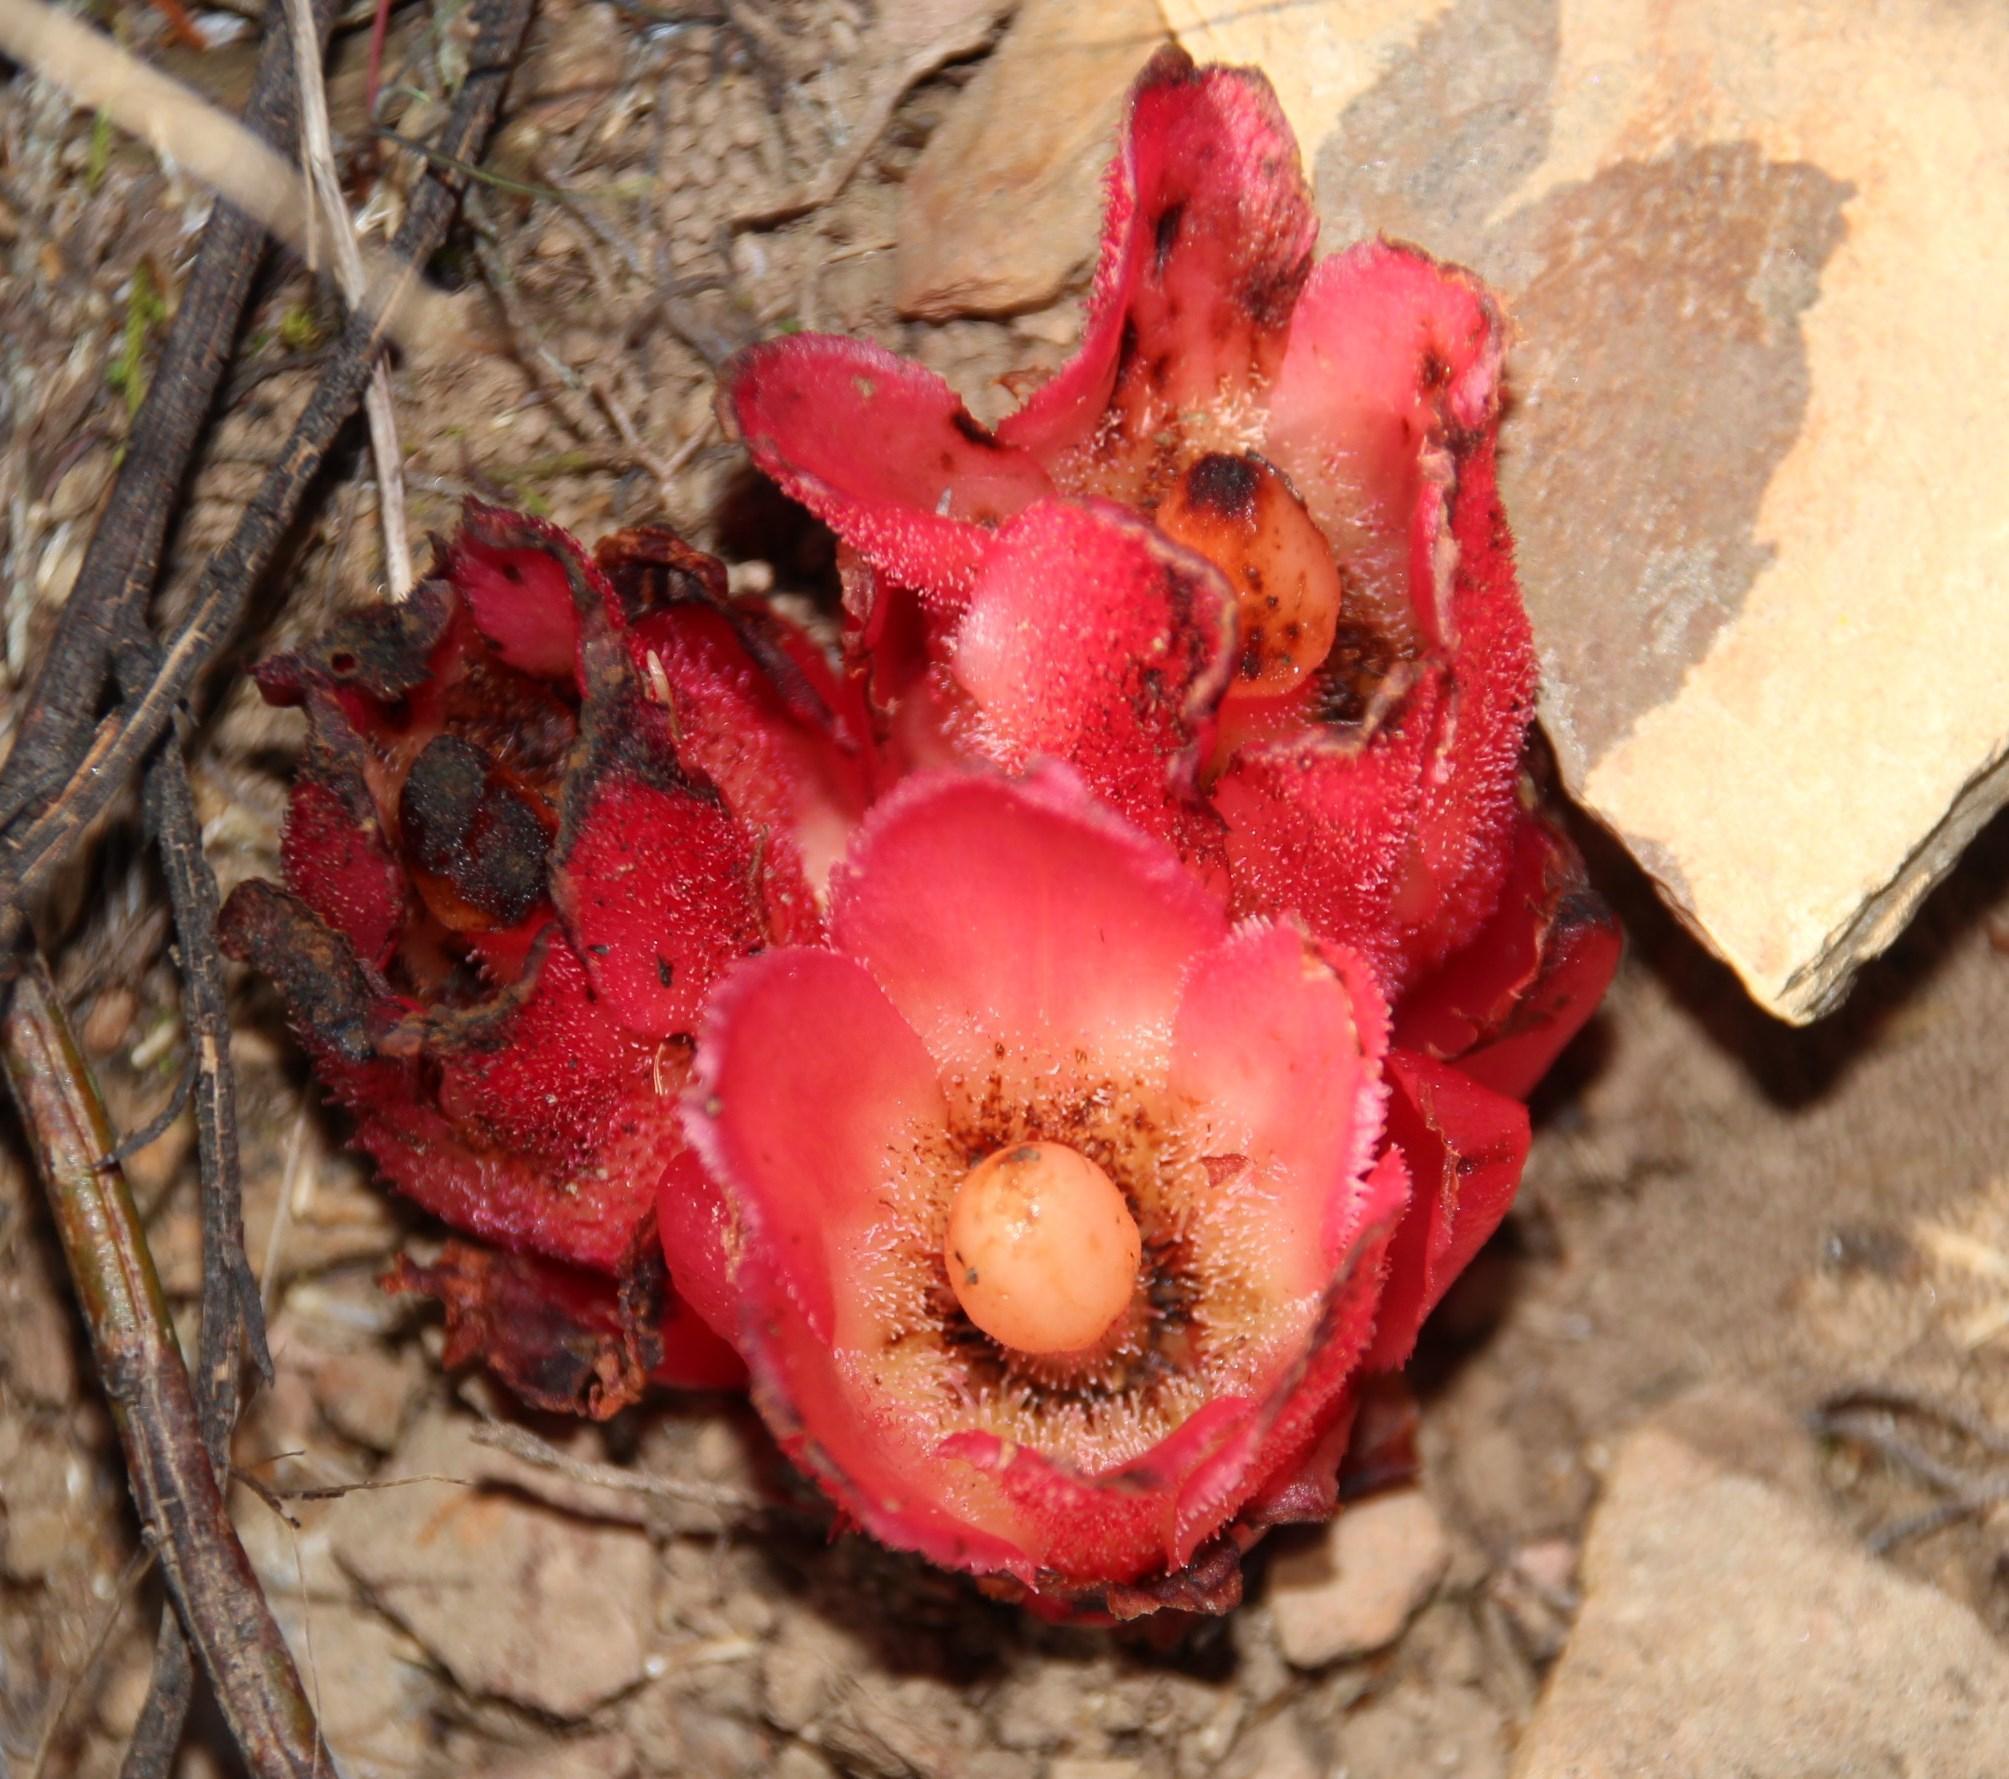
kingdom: Plantae
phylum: Tracheophyta
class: Magnoliopsida
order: Malvales
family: Cytinaceae
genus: Cytinus
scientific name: Cytinus sanguineus
